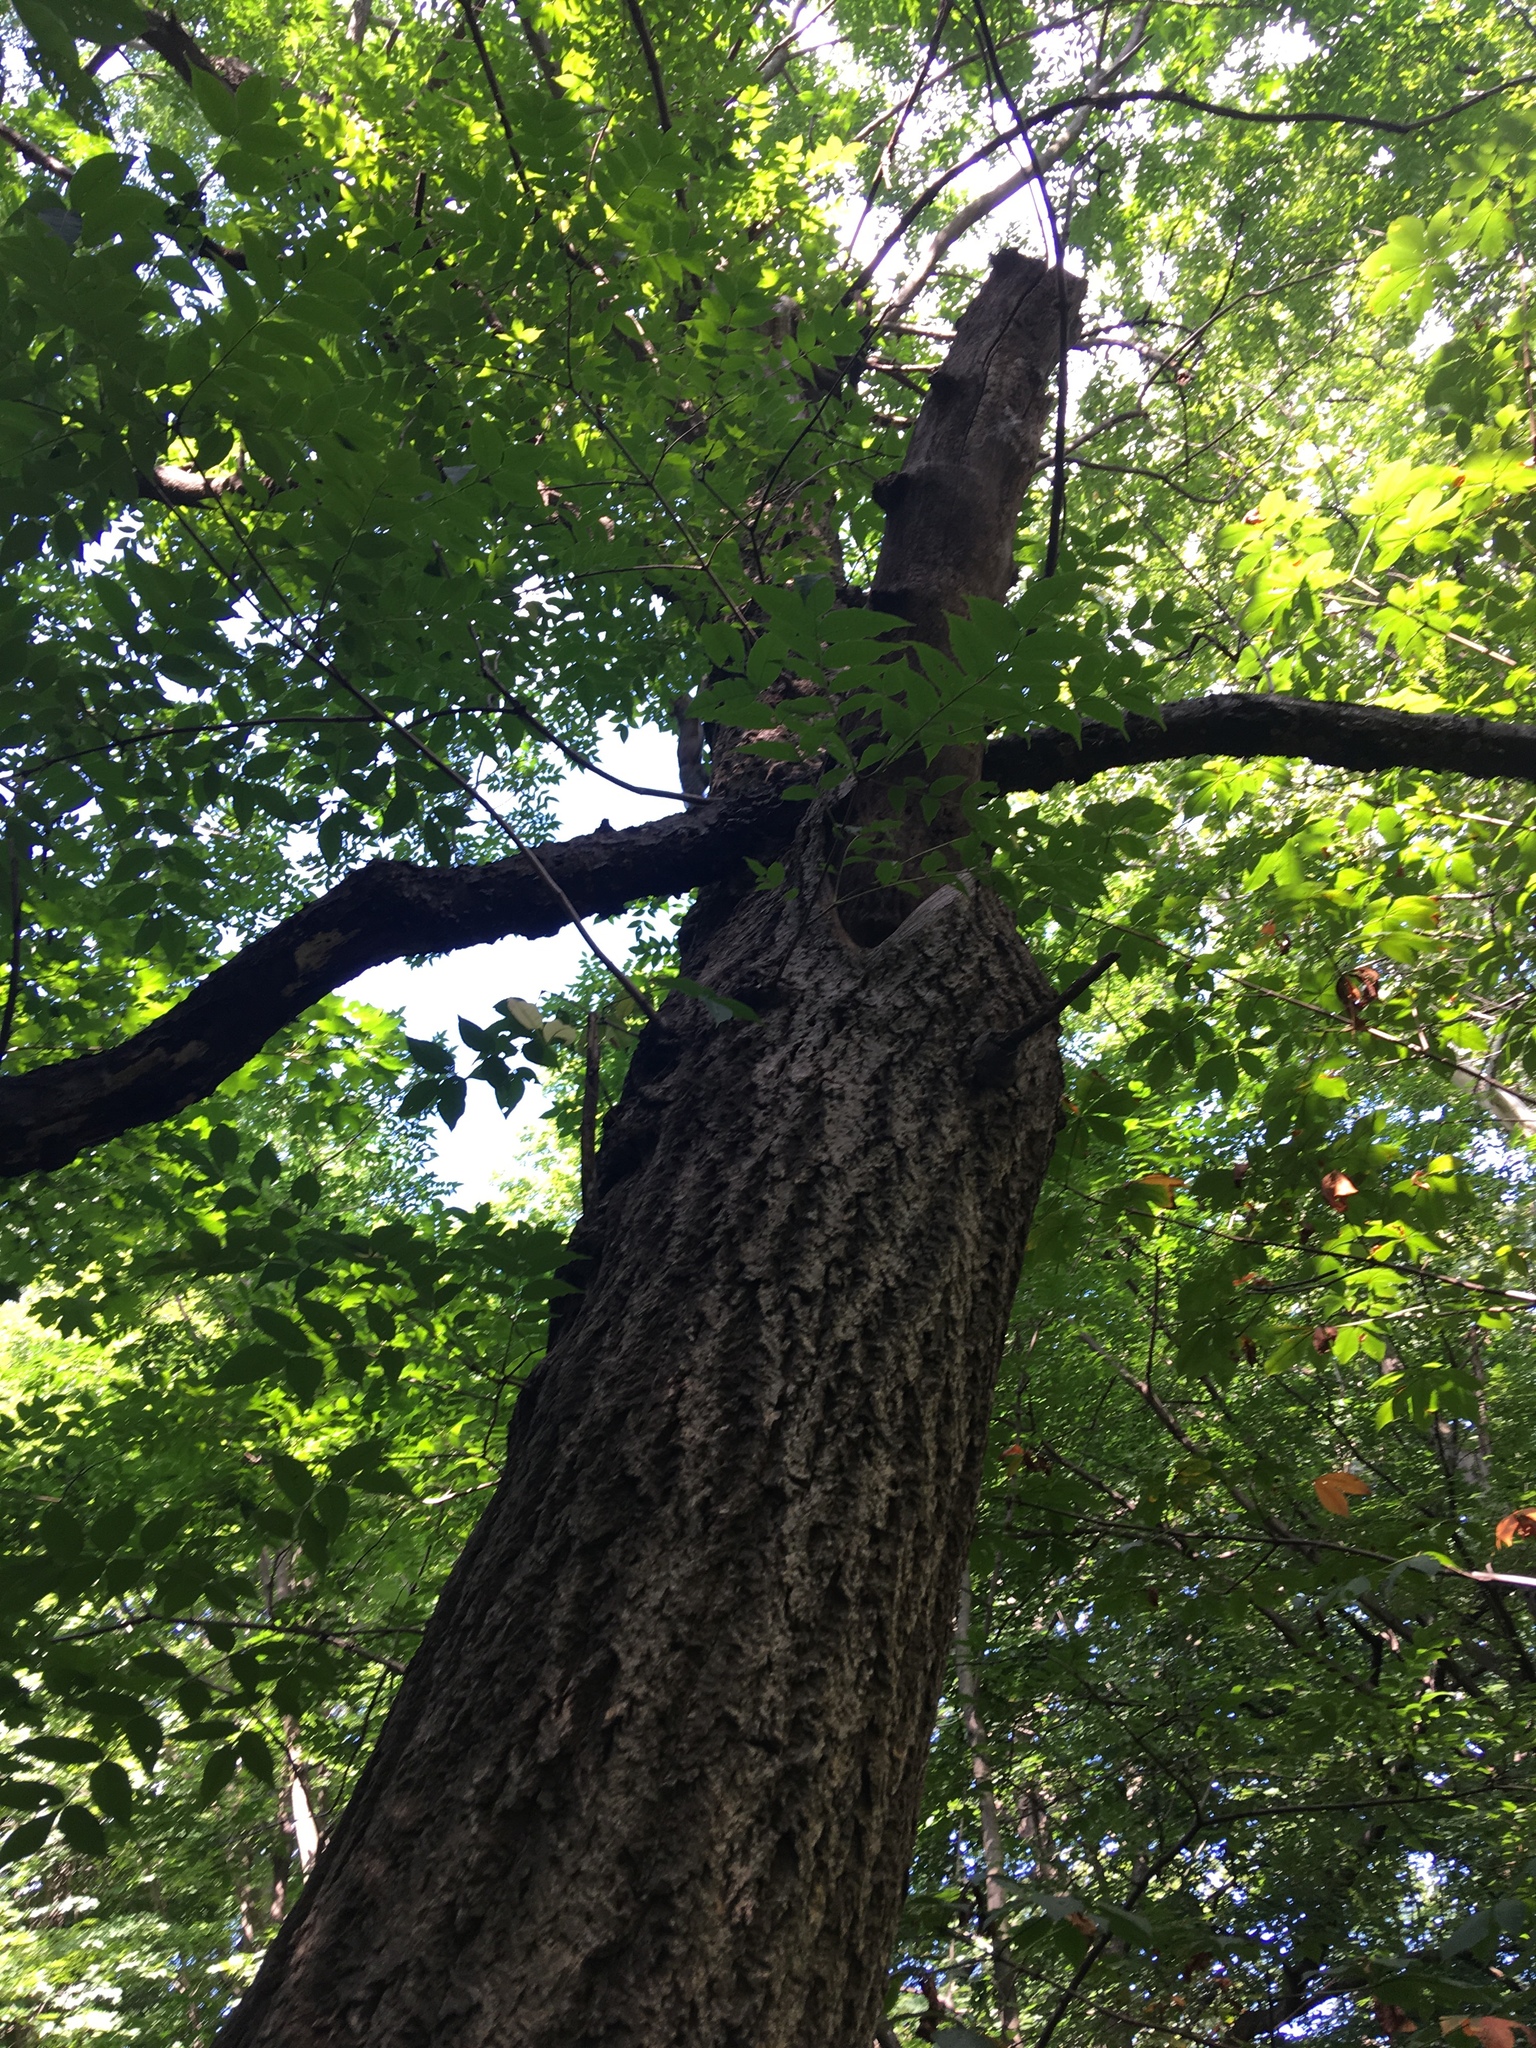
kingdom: Plantae
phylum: Tracheophyta
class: Magnoliopsida
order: Sapindales
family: Rutaceae
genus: Phellodendron
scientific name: Phellodendron amurense
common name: Amur corktree
